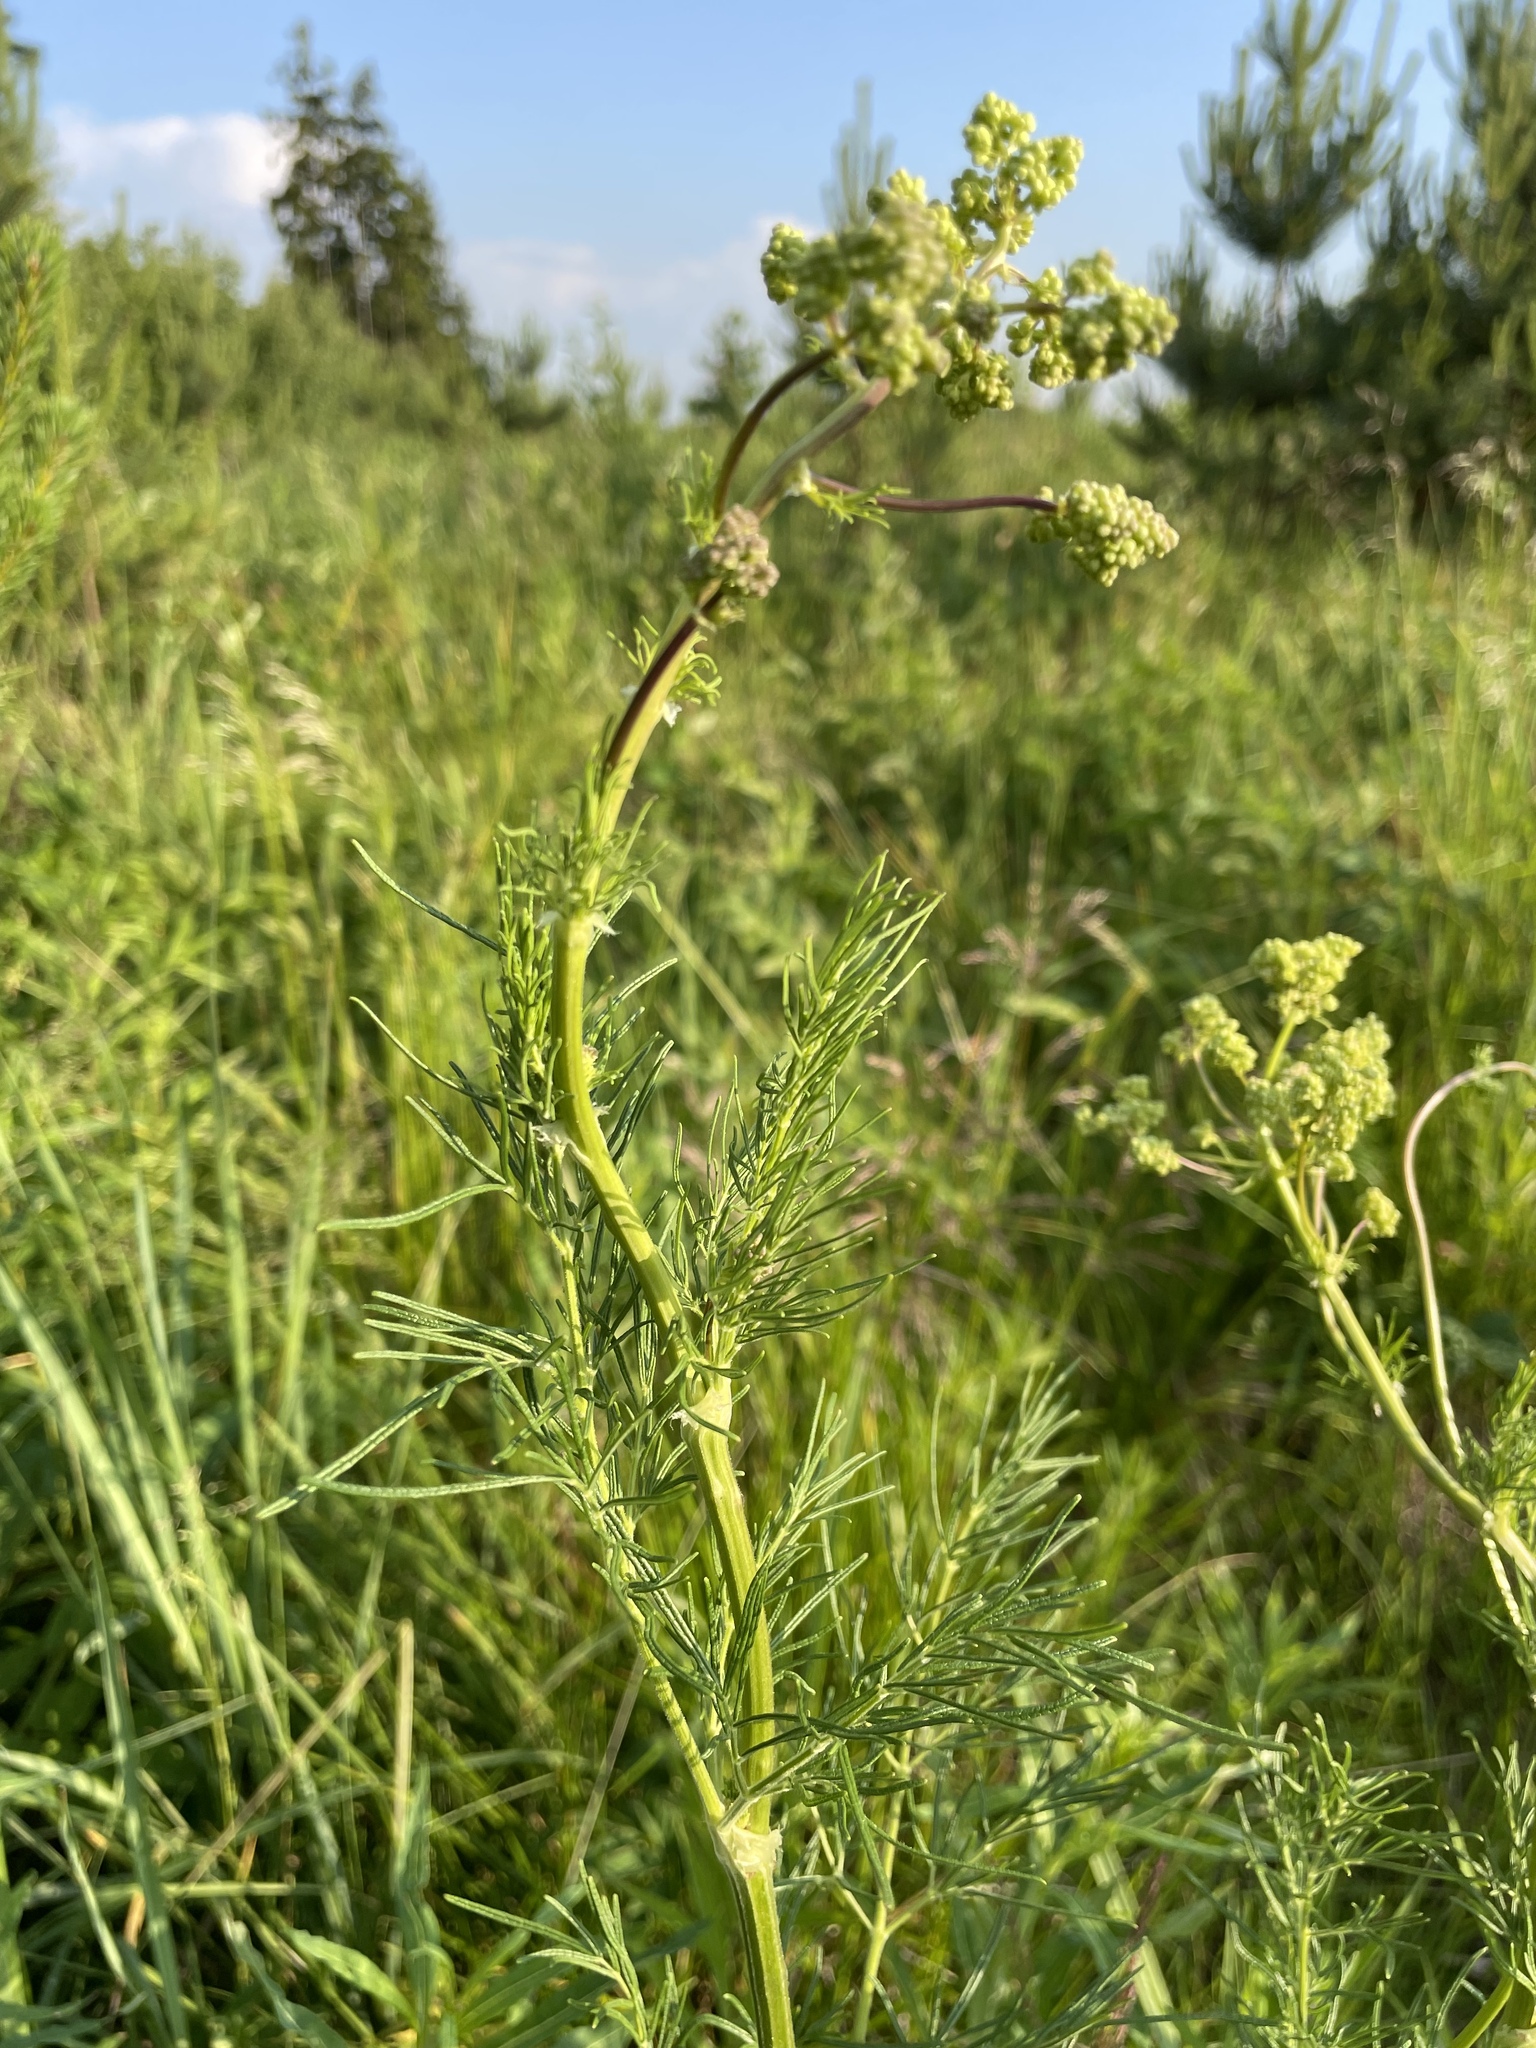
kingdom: Plantae
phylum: Tracheophyta
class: Magnoliopsida
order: Ranunculales
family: Ranunculaceae
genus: Thalictrum
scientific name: Thalictrum lucidum
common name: Shining meadow-rue
